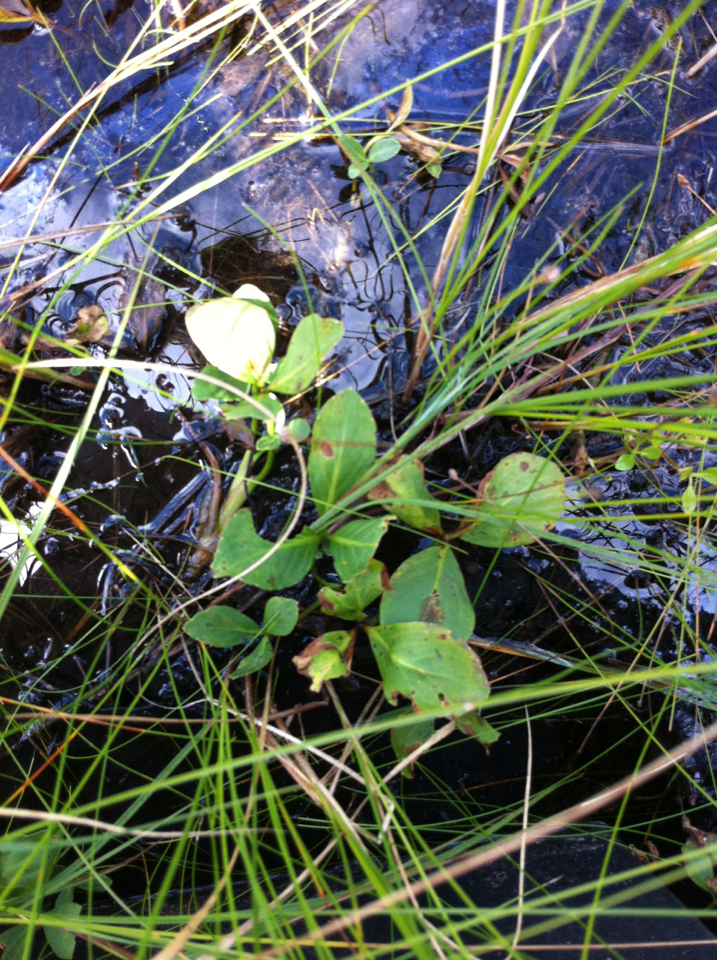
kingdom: Plantae
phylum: Tracheophyta
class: Magnoliopsida
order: Asterales
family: Menyanthaceae
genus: Menyanthes
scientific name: Menyanthes trifoliata
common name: Bogbean
